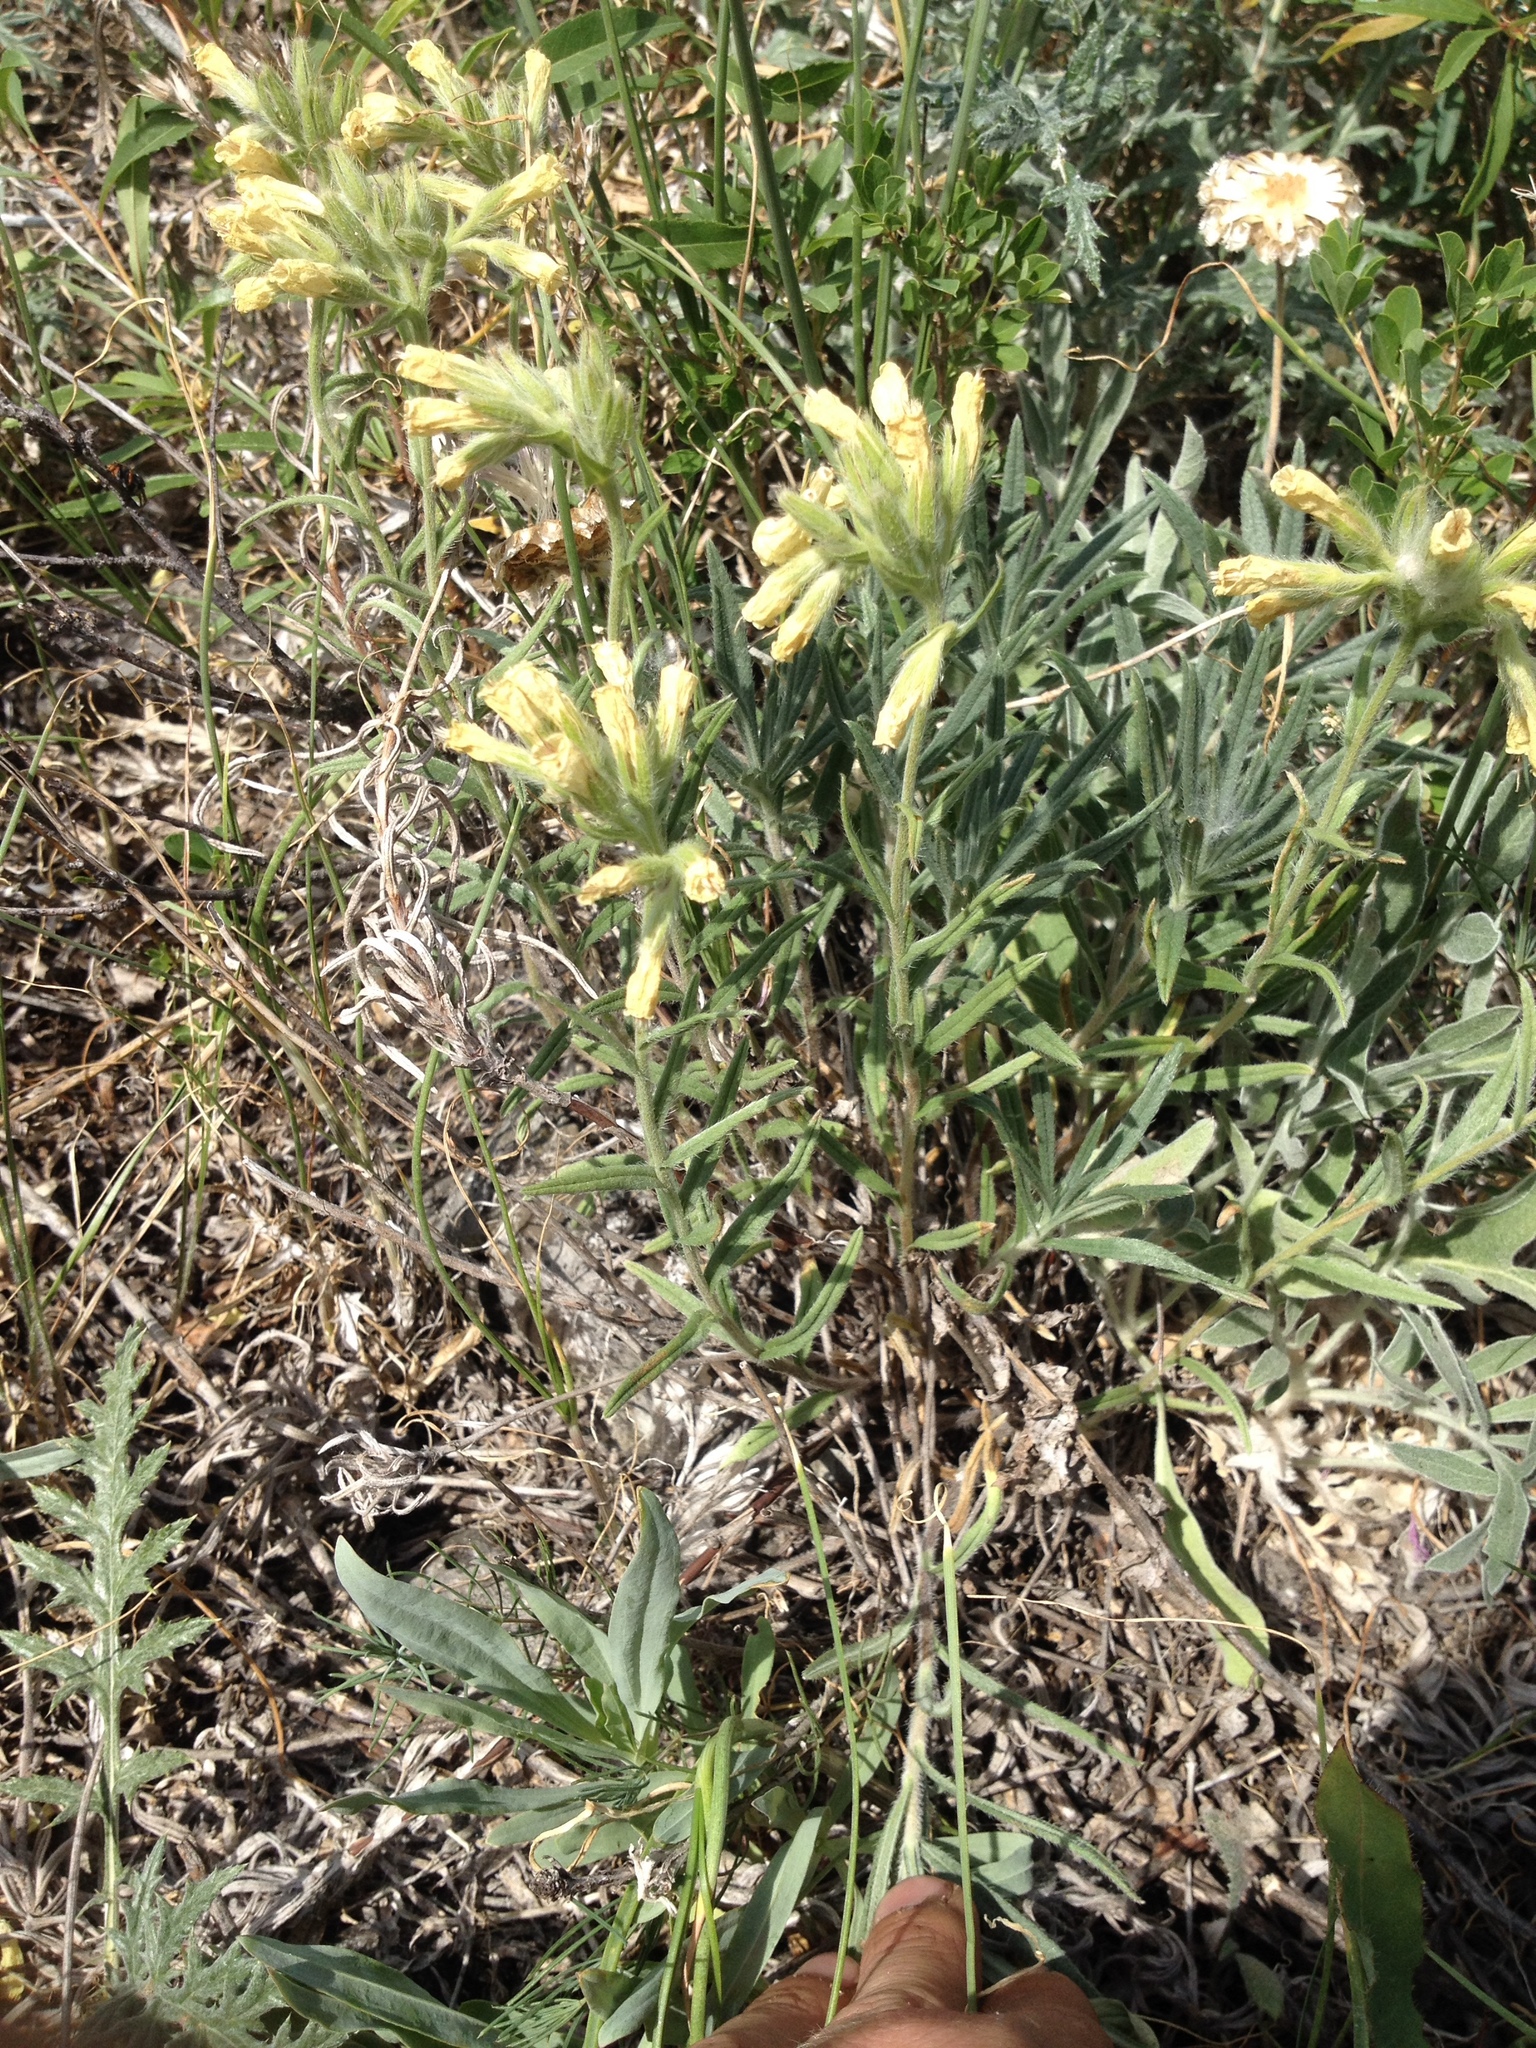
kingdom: Plantae
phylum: Tracheophyta
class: Magnoliopsida
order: Boraginales
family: Boraginaceae
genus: Onosma
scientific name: Onosma simplicissima
